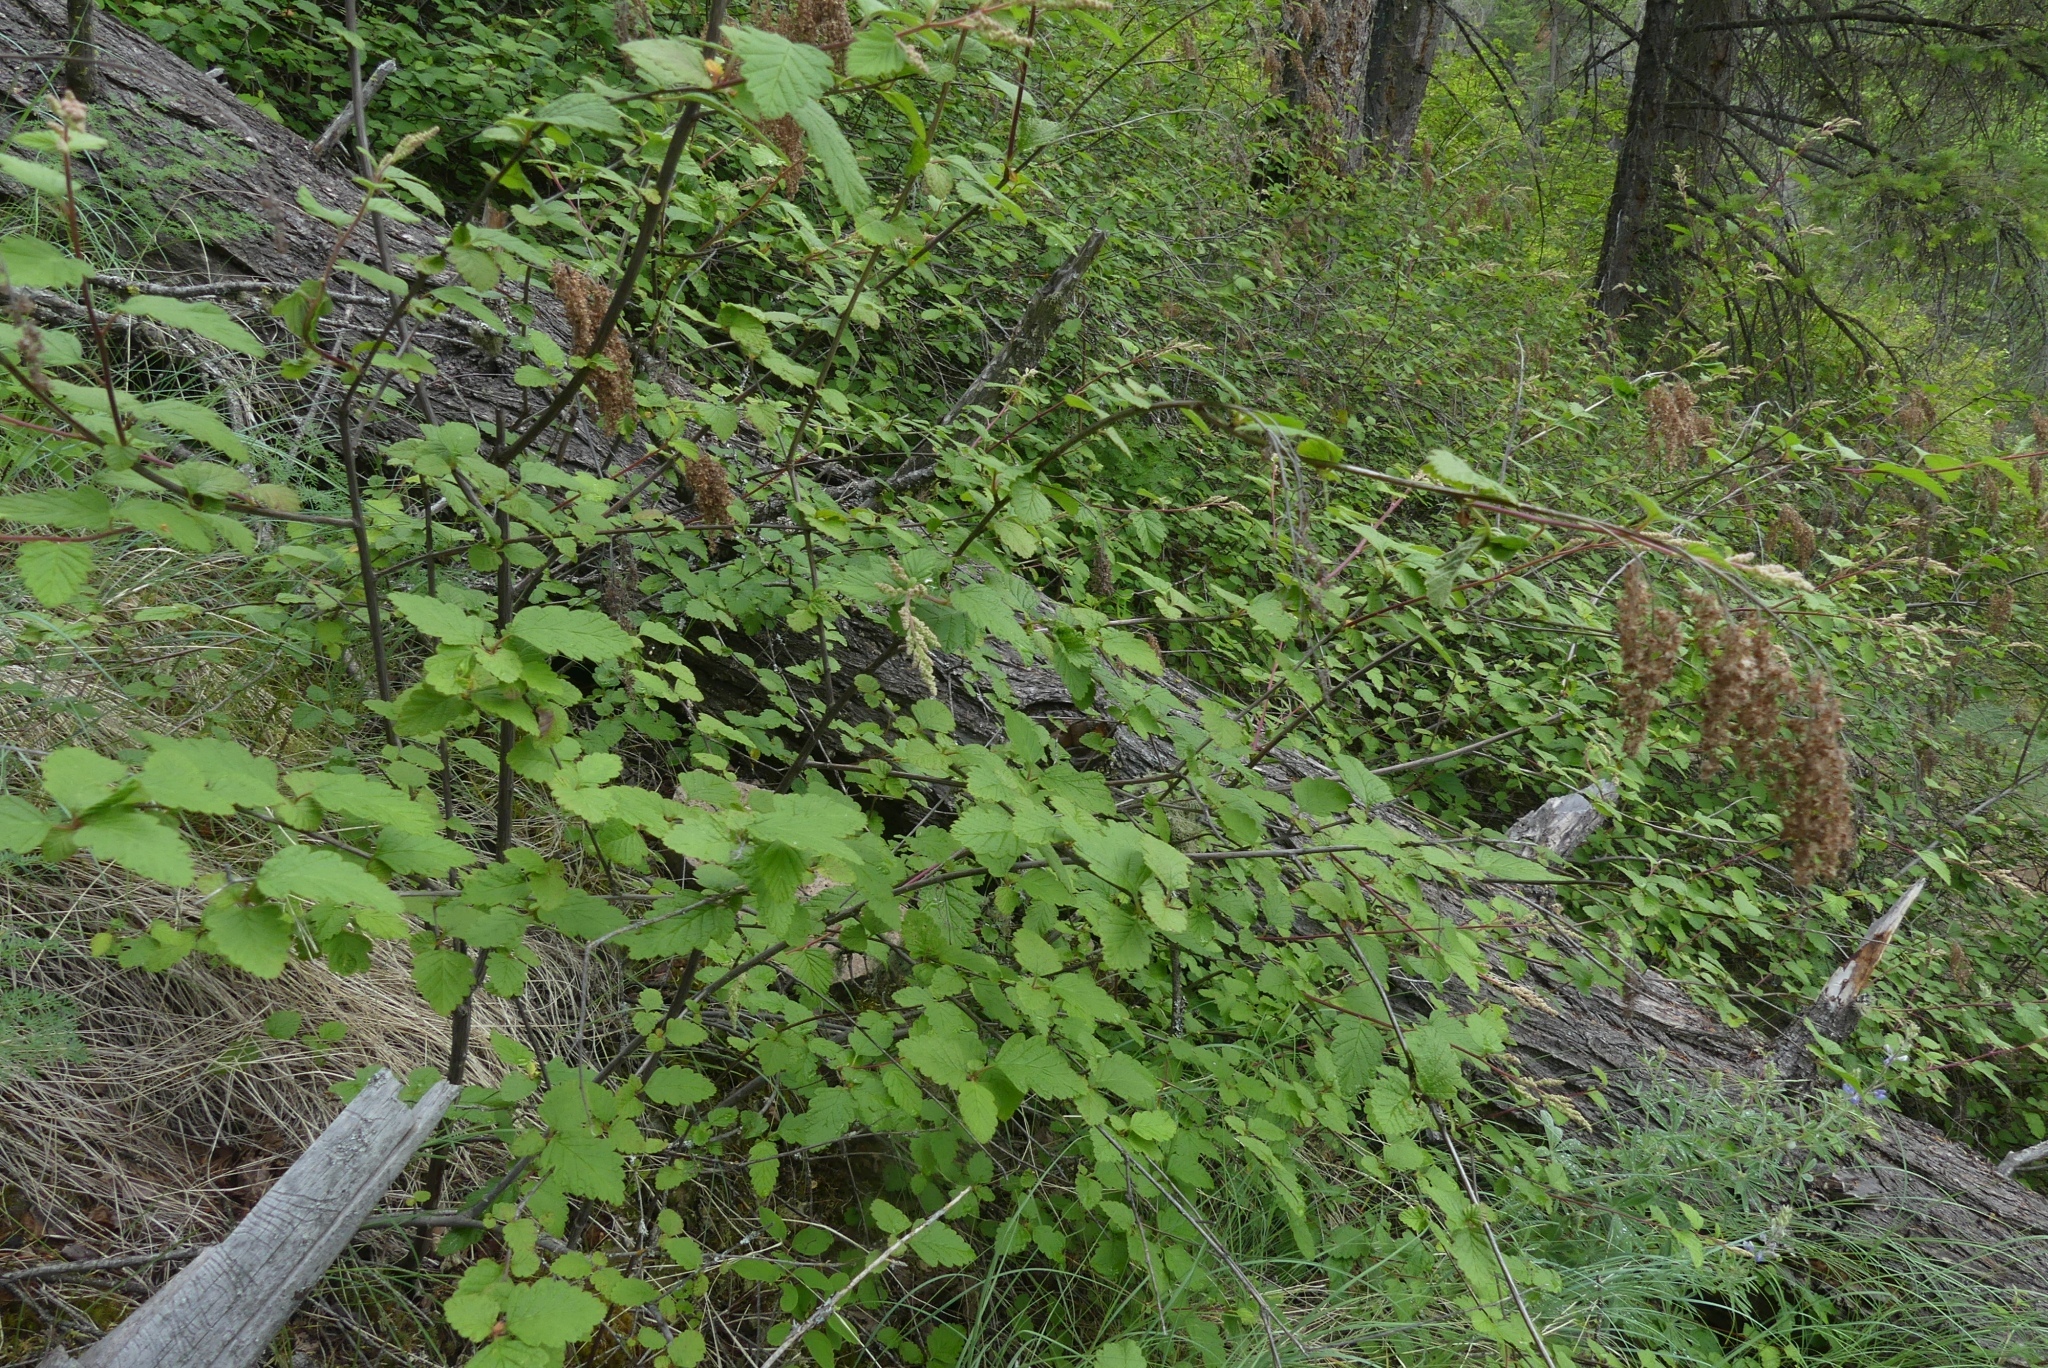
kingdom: Plantae
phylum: Tracheophyta
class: Magnoliopsida
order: Rosales
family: Rosaceae
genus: Holodiscus
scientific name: Holodiscus discolor
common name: Oceanspray
